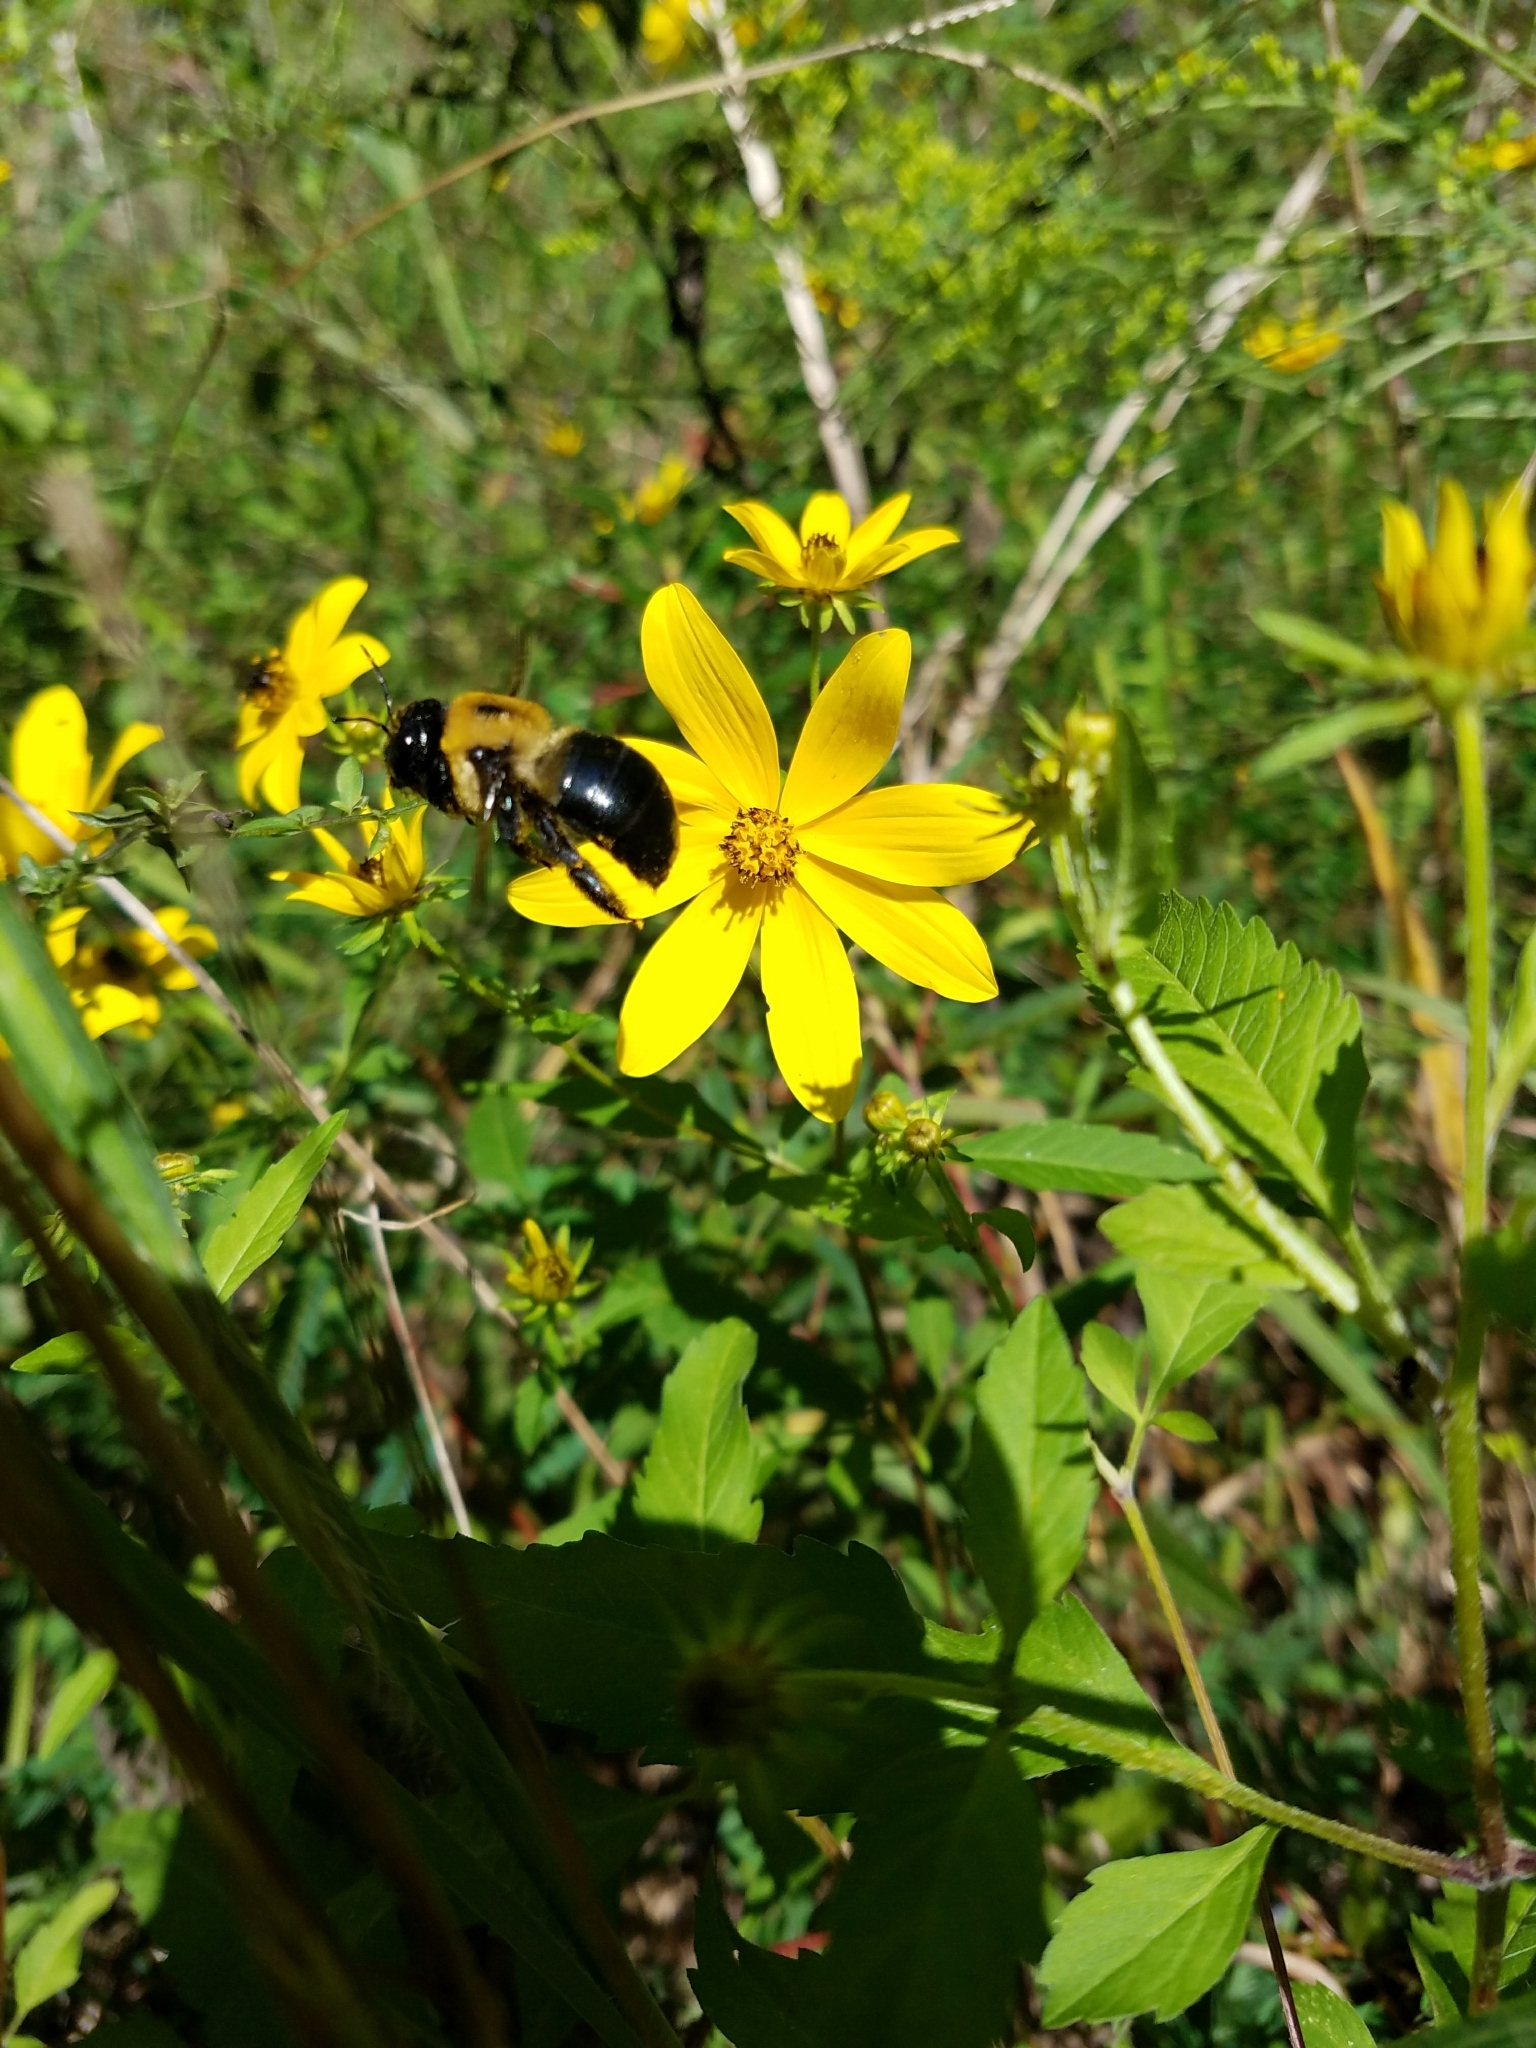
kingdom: Animalia
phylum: Arthropoda
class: Insecta
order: Hymenoptera
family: Apidae
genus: Xylocopa
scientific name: Xylocopa virginica
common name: Carpenter bee
